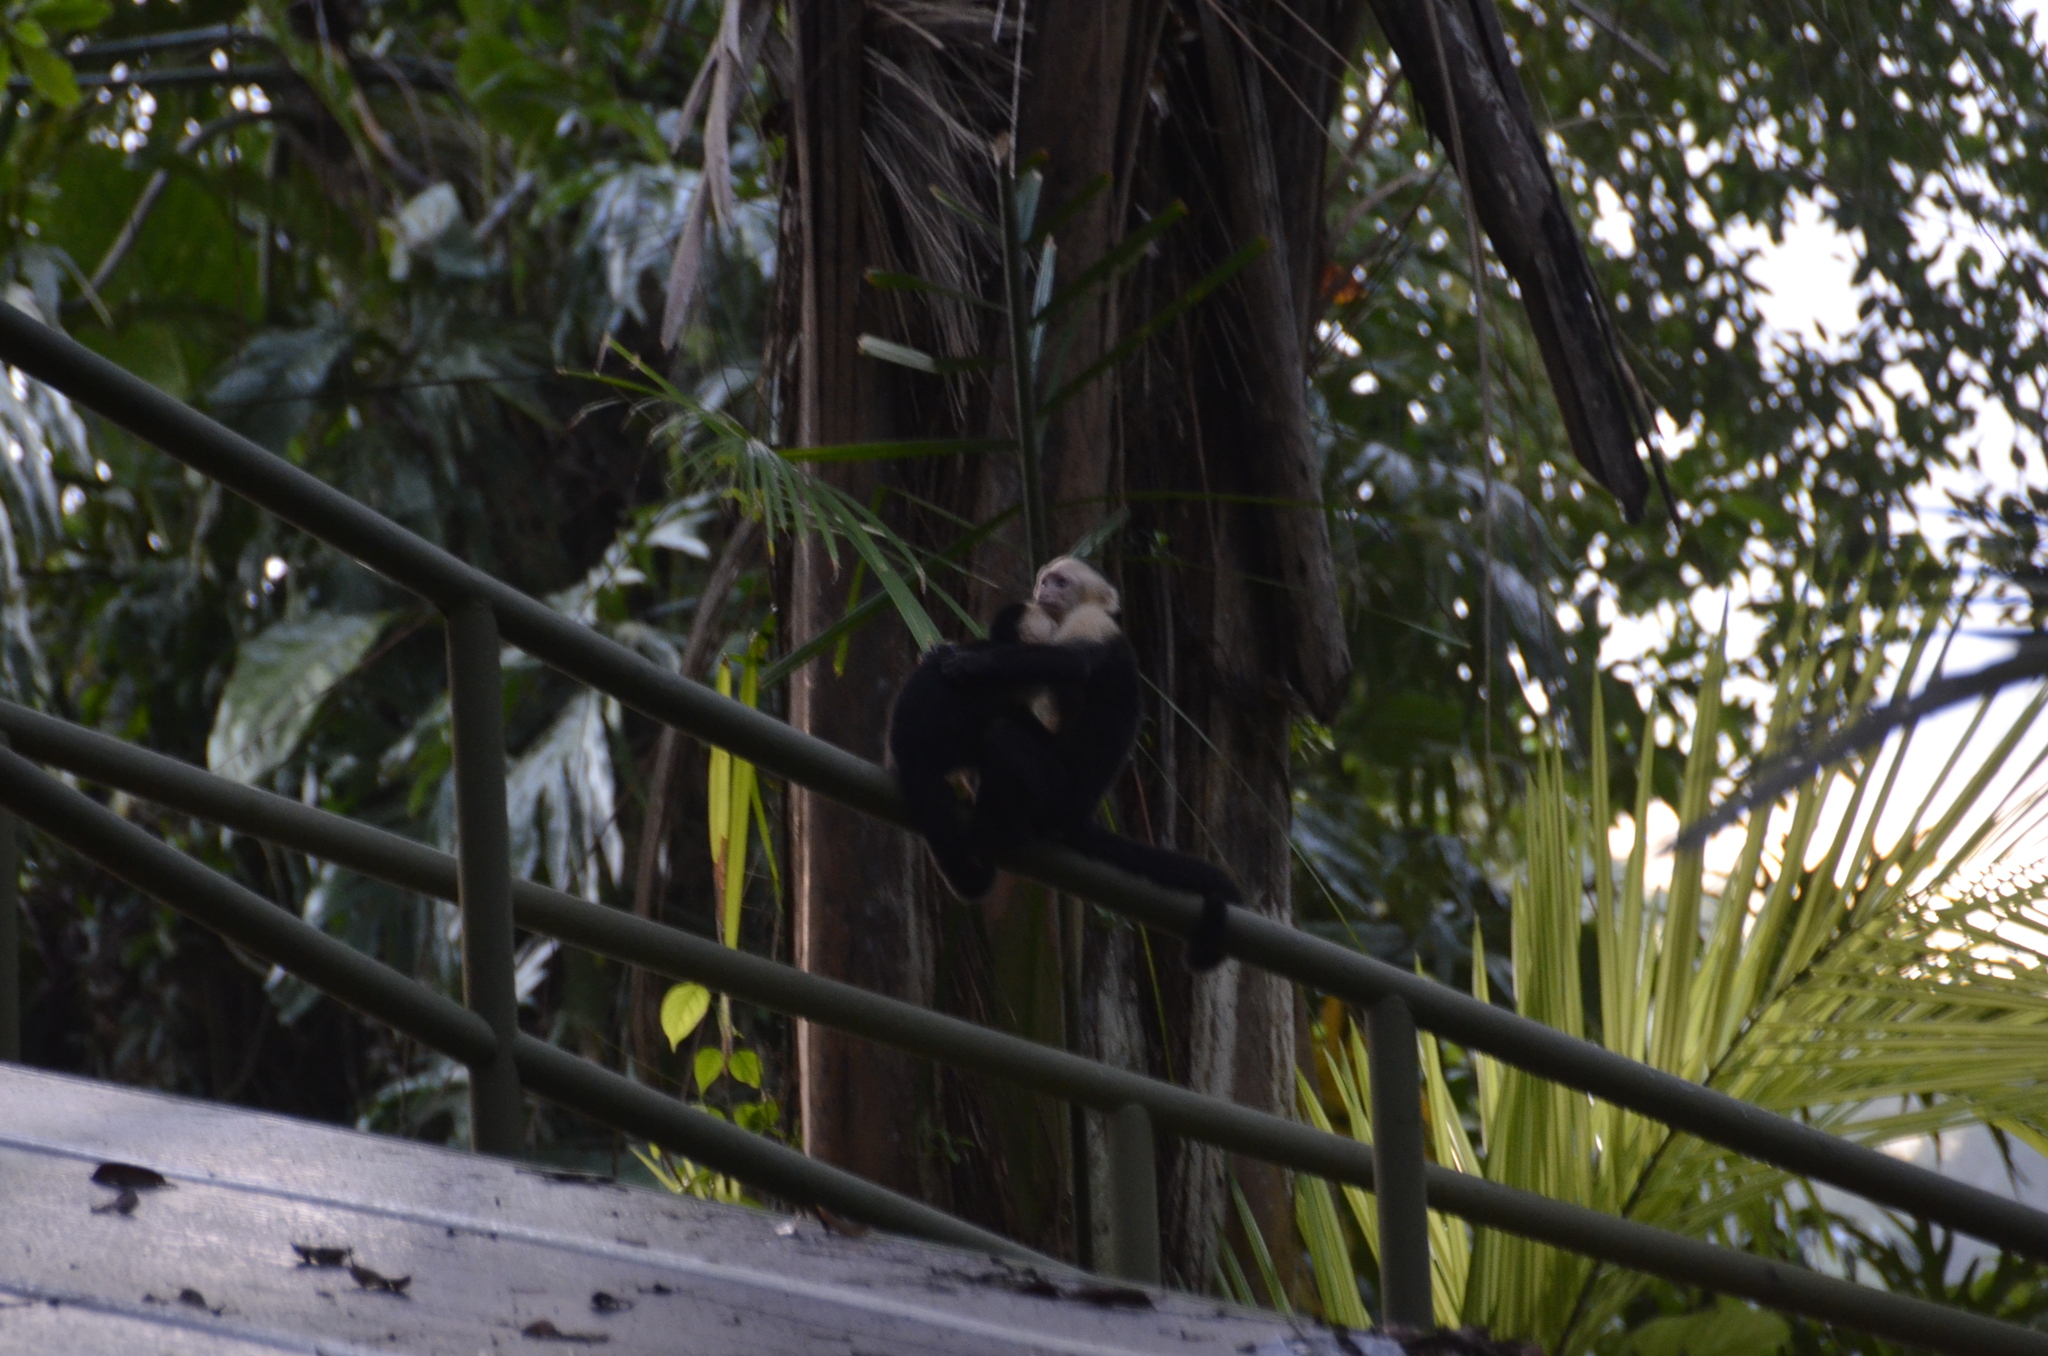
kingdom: Animalia
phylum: Chordata
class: Mammalia
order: Primates
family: Cebidae
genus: Cebus
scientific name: Cebus imitator
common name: Panamanian white-faced capuchin
